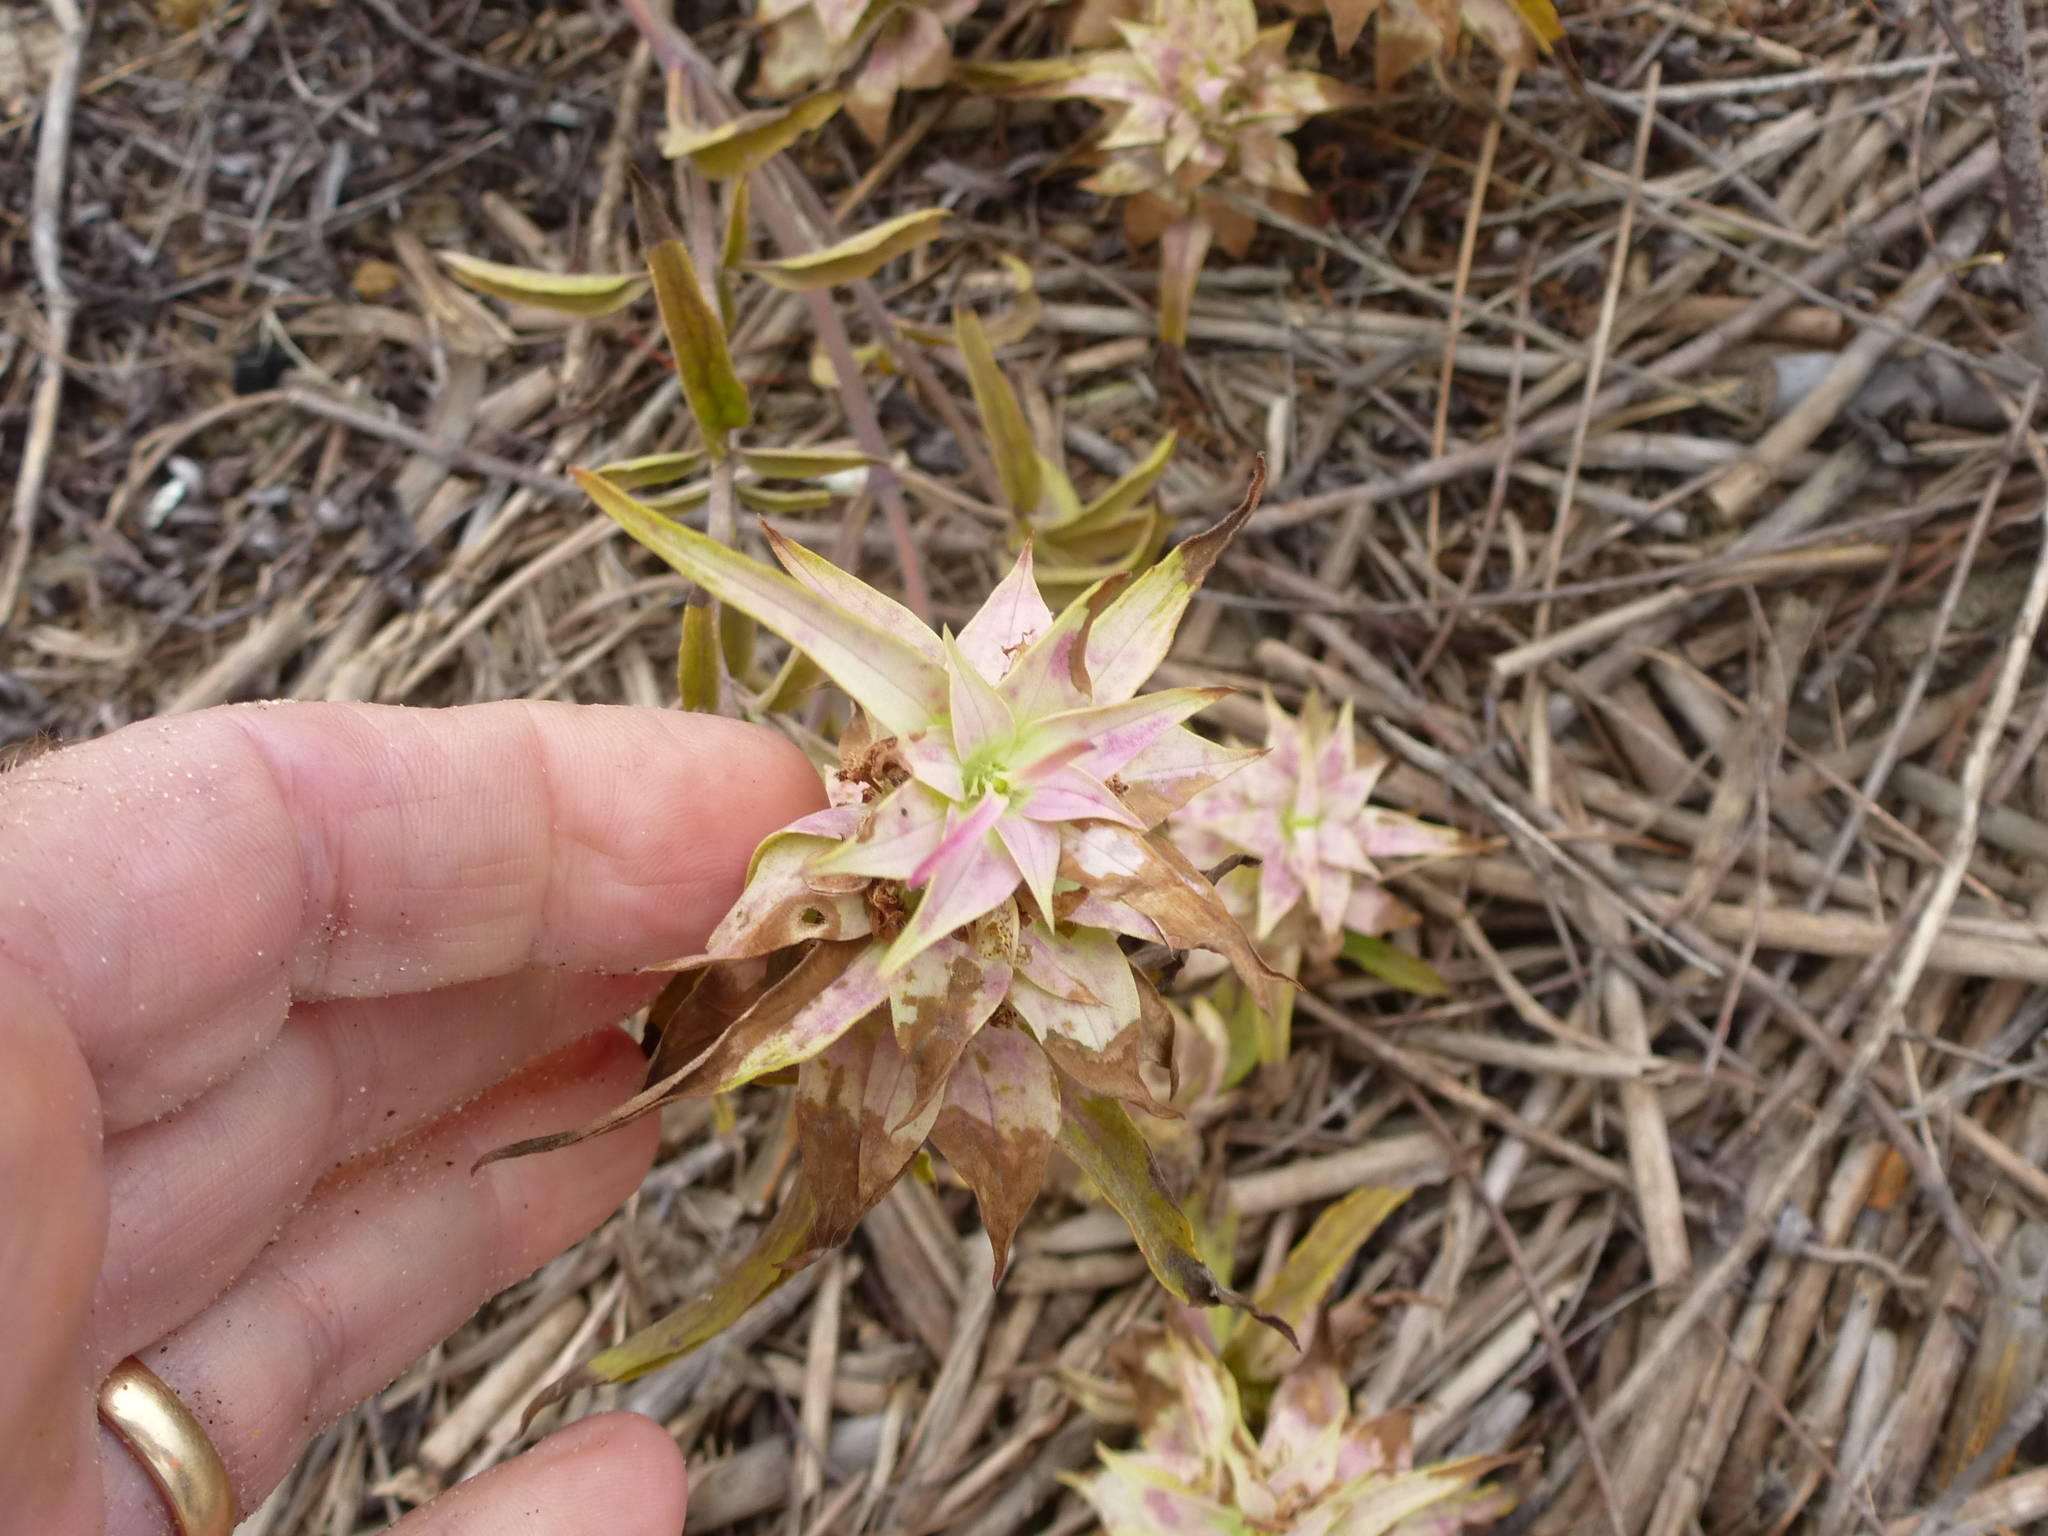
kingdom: Plantae
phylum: Tracheophyta
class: Magnoliopsida
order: Lamiales
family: Lamiaceae
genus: Monarda
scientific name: Monarda punctata
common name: Dotted monarda
